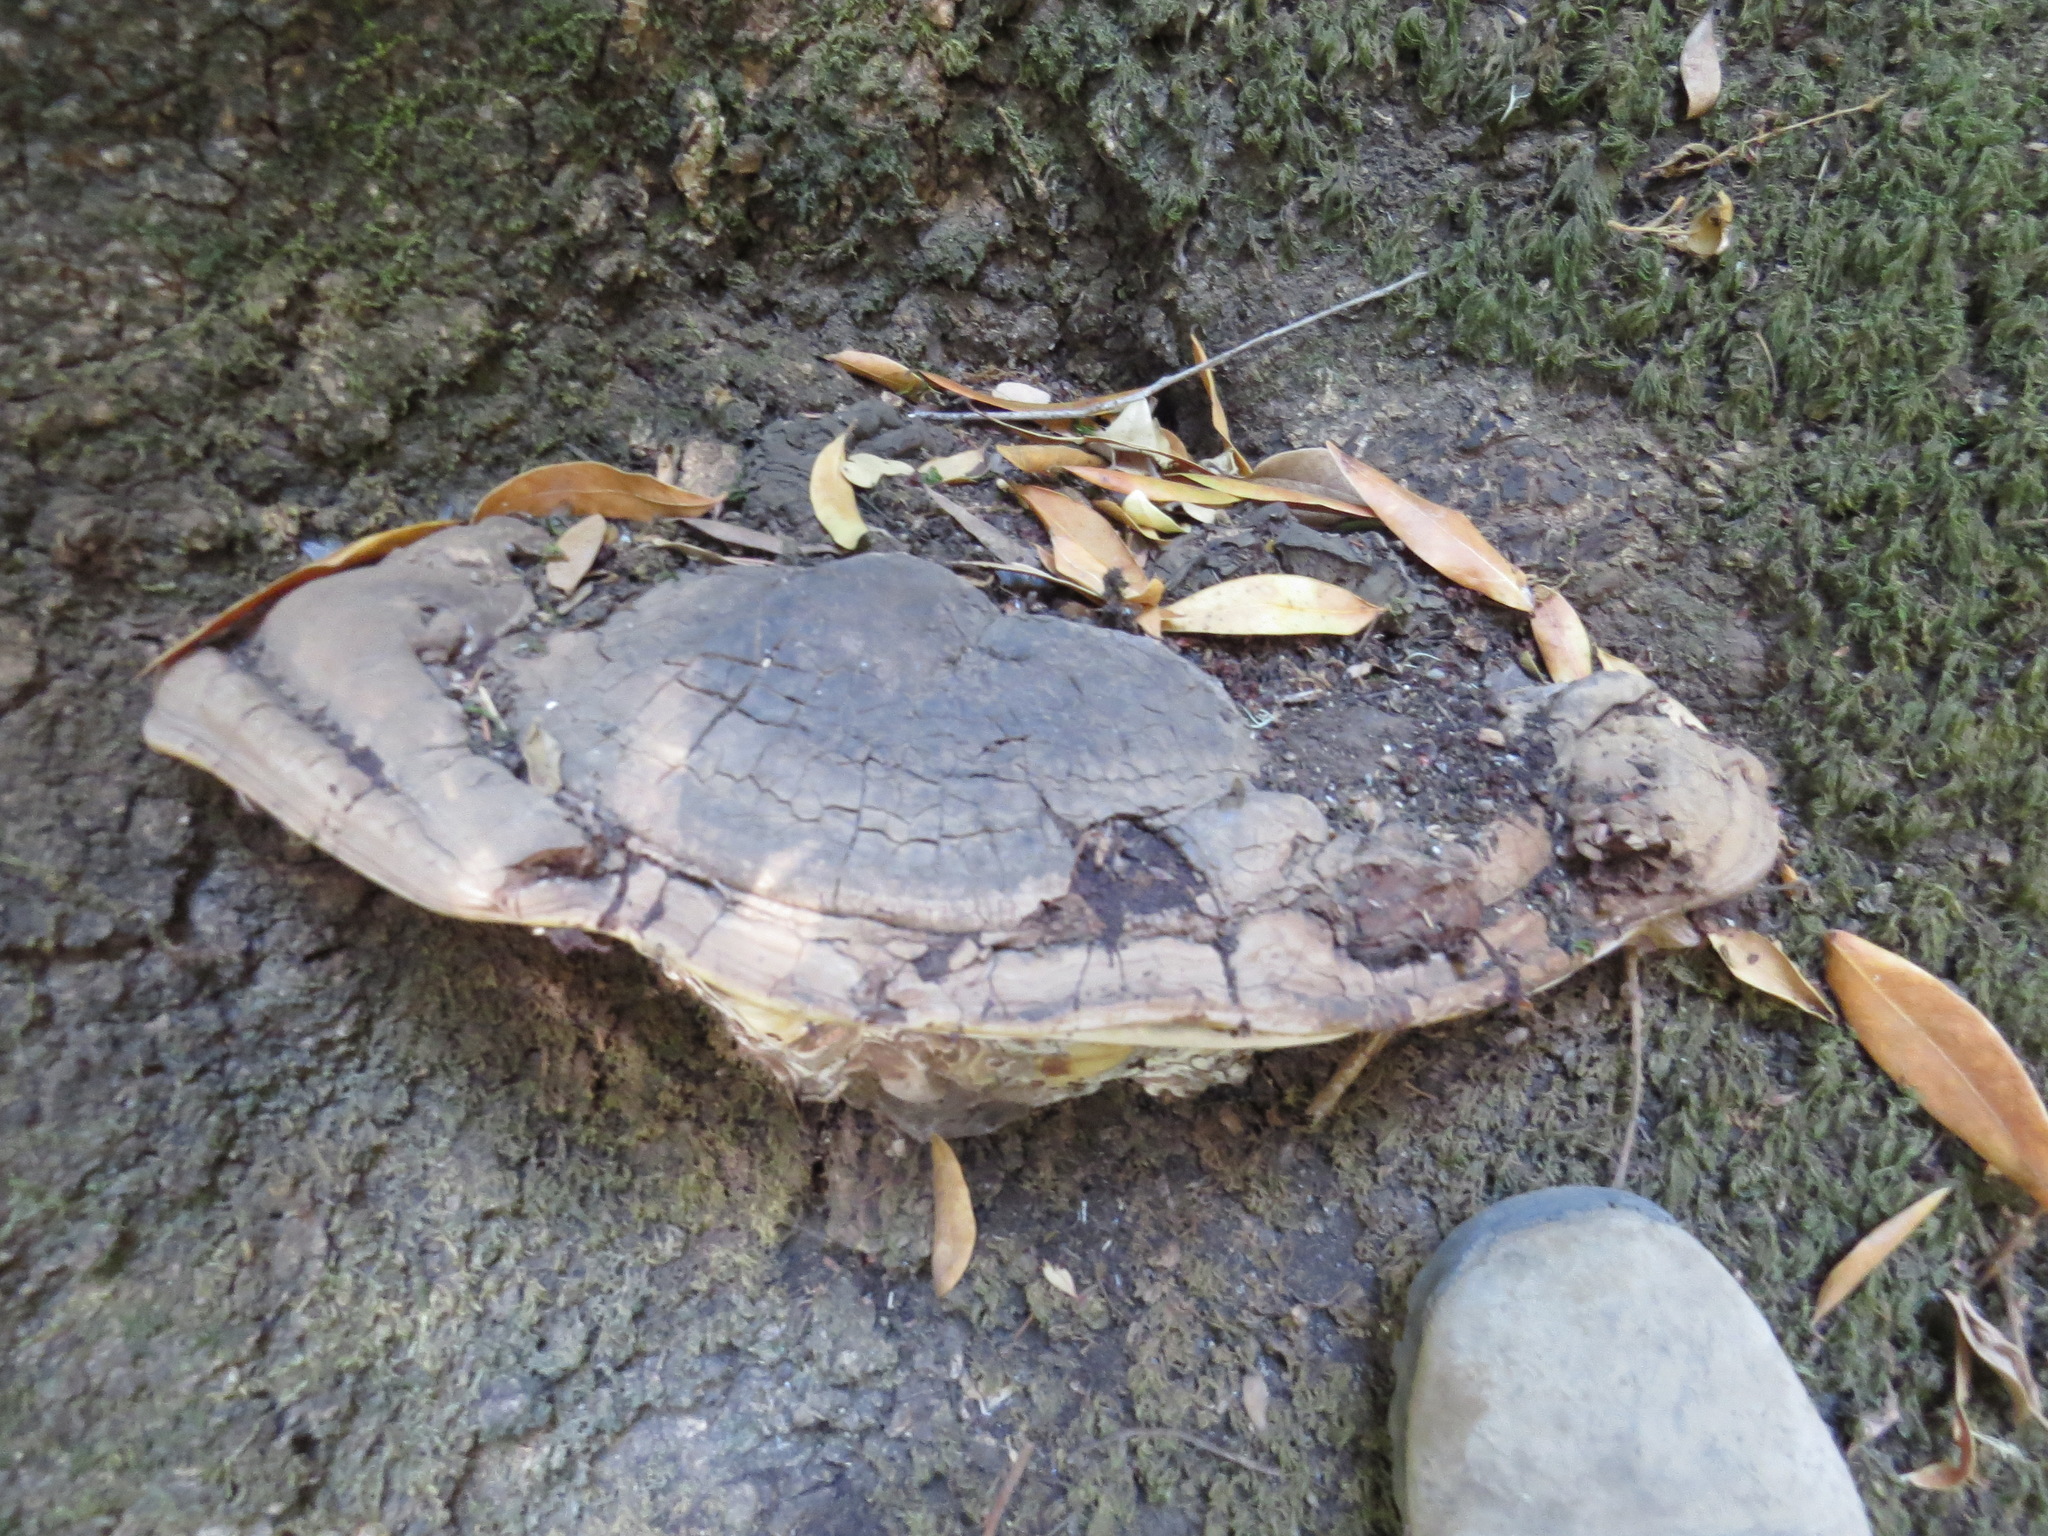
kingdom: Fungi
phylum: Basidiomycota
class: Agaricomycetes
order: Polyporales
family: Polyporaceae
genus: Ganoderma
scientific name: Ganoderma brownii
